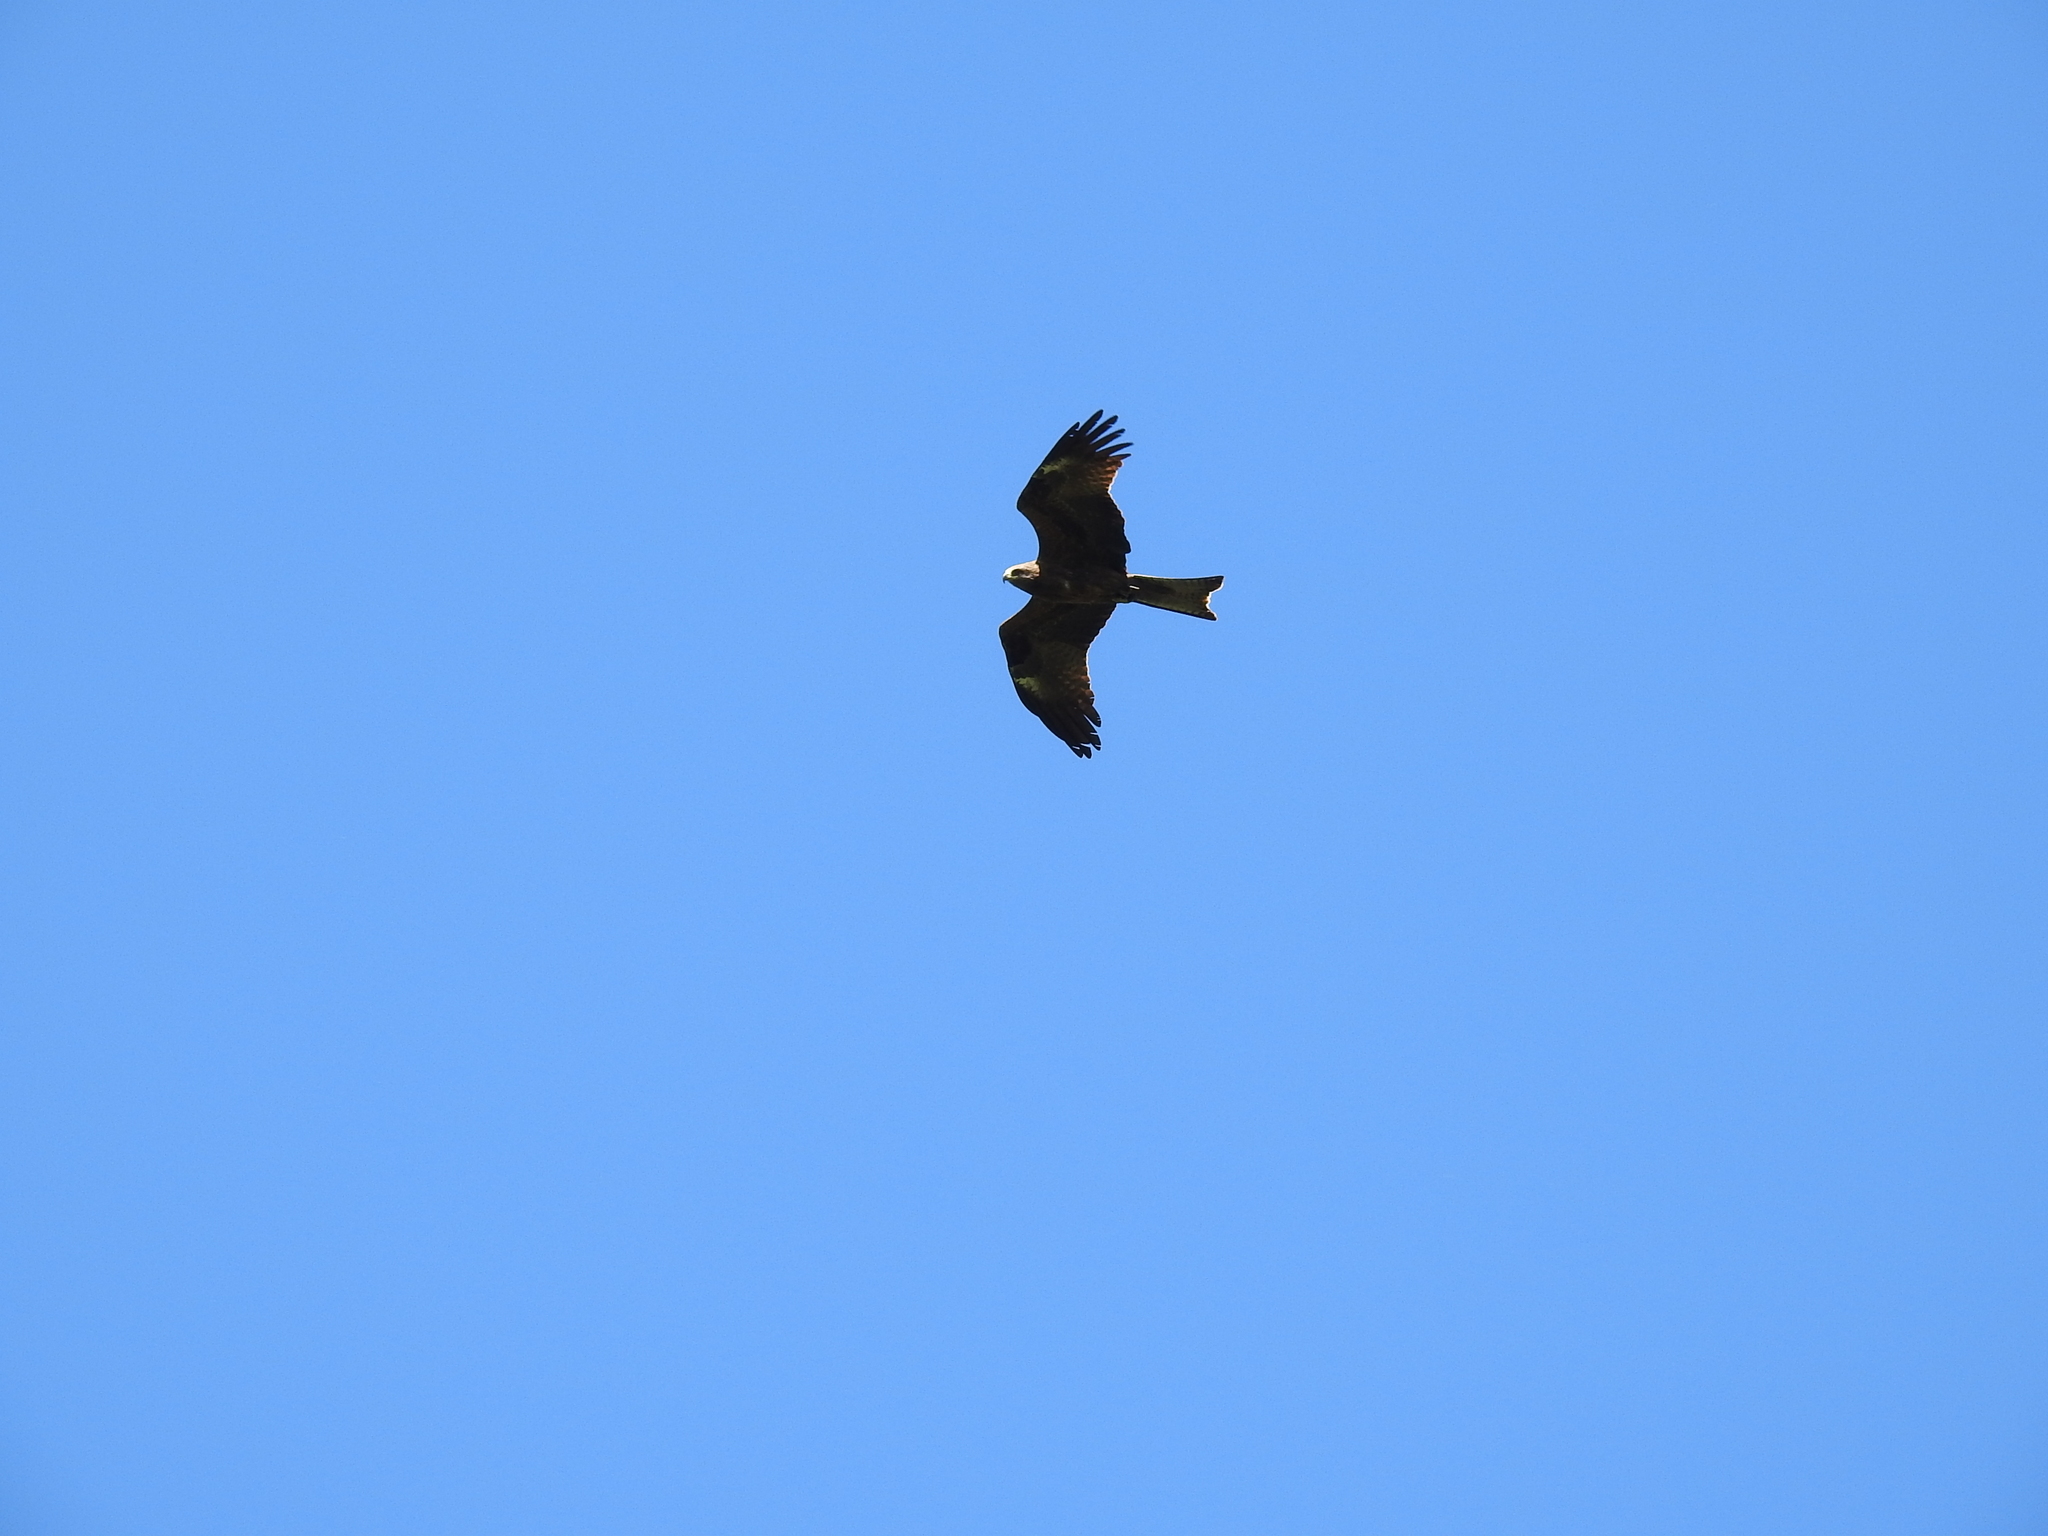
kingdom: Animalia
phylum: Chordata
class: Aves
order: Accipitriformes
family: Accipitridae
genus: Milvus
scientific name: Milvus migrans
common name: Black kite
